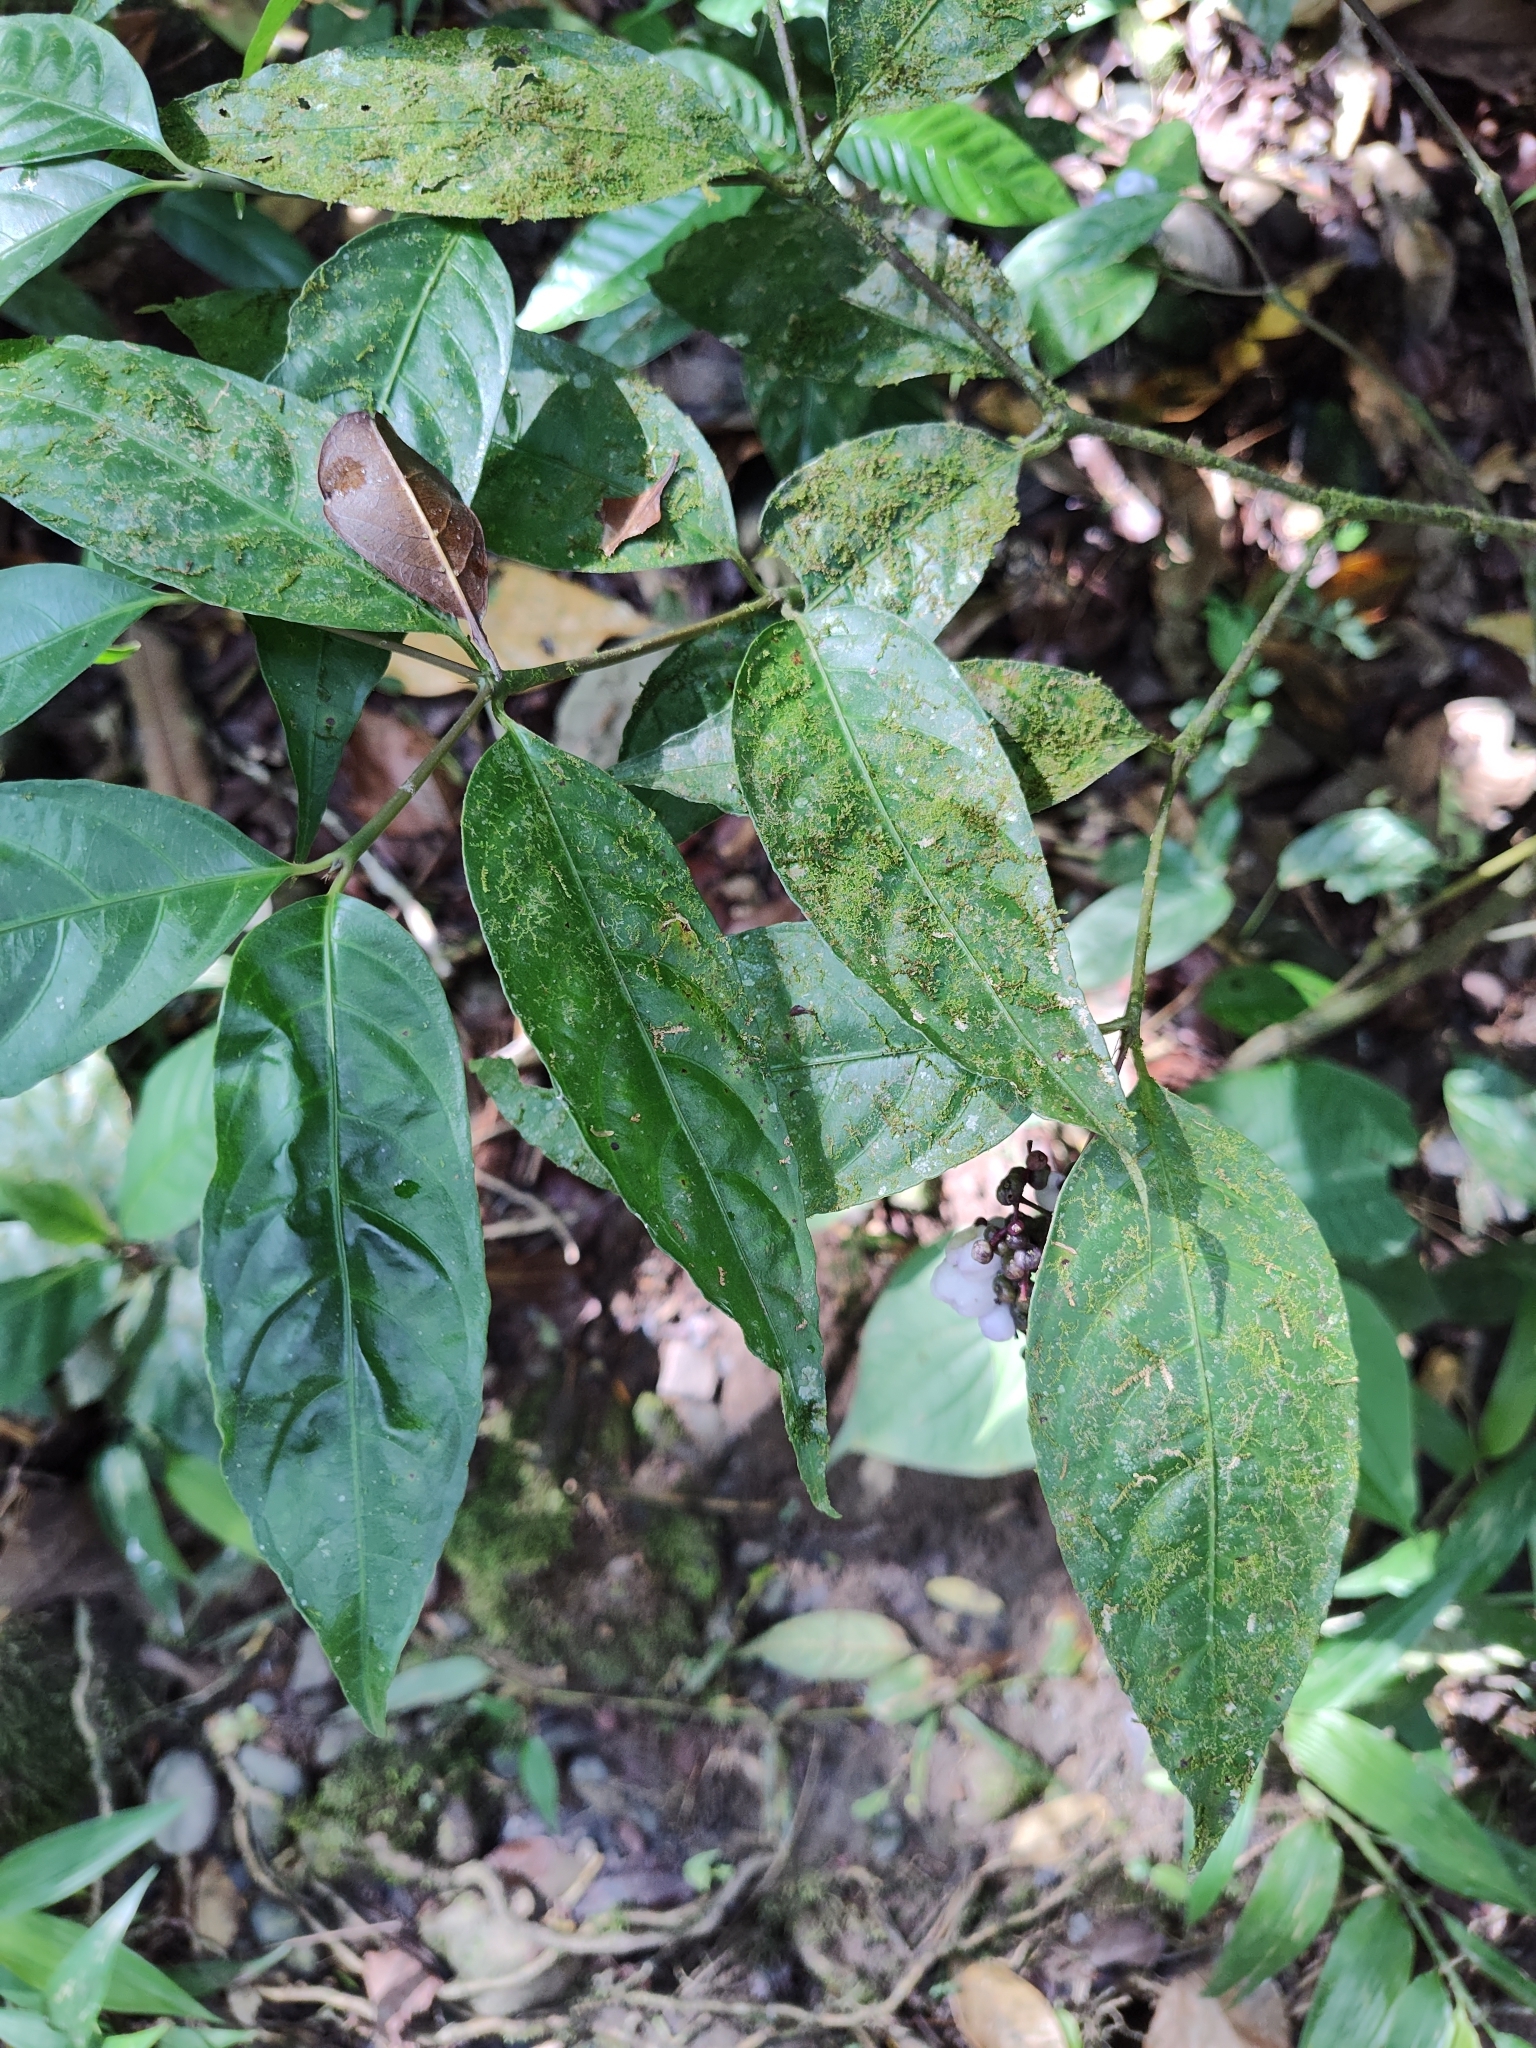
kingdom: Plantae
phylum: Tracheophyta
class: Magnoliopsida
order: Gentianales
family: Rubiaceae
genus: Palicourea
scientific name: Palicourea deflexa
